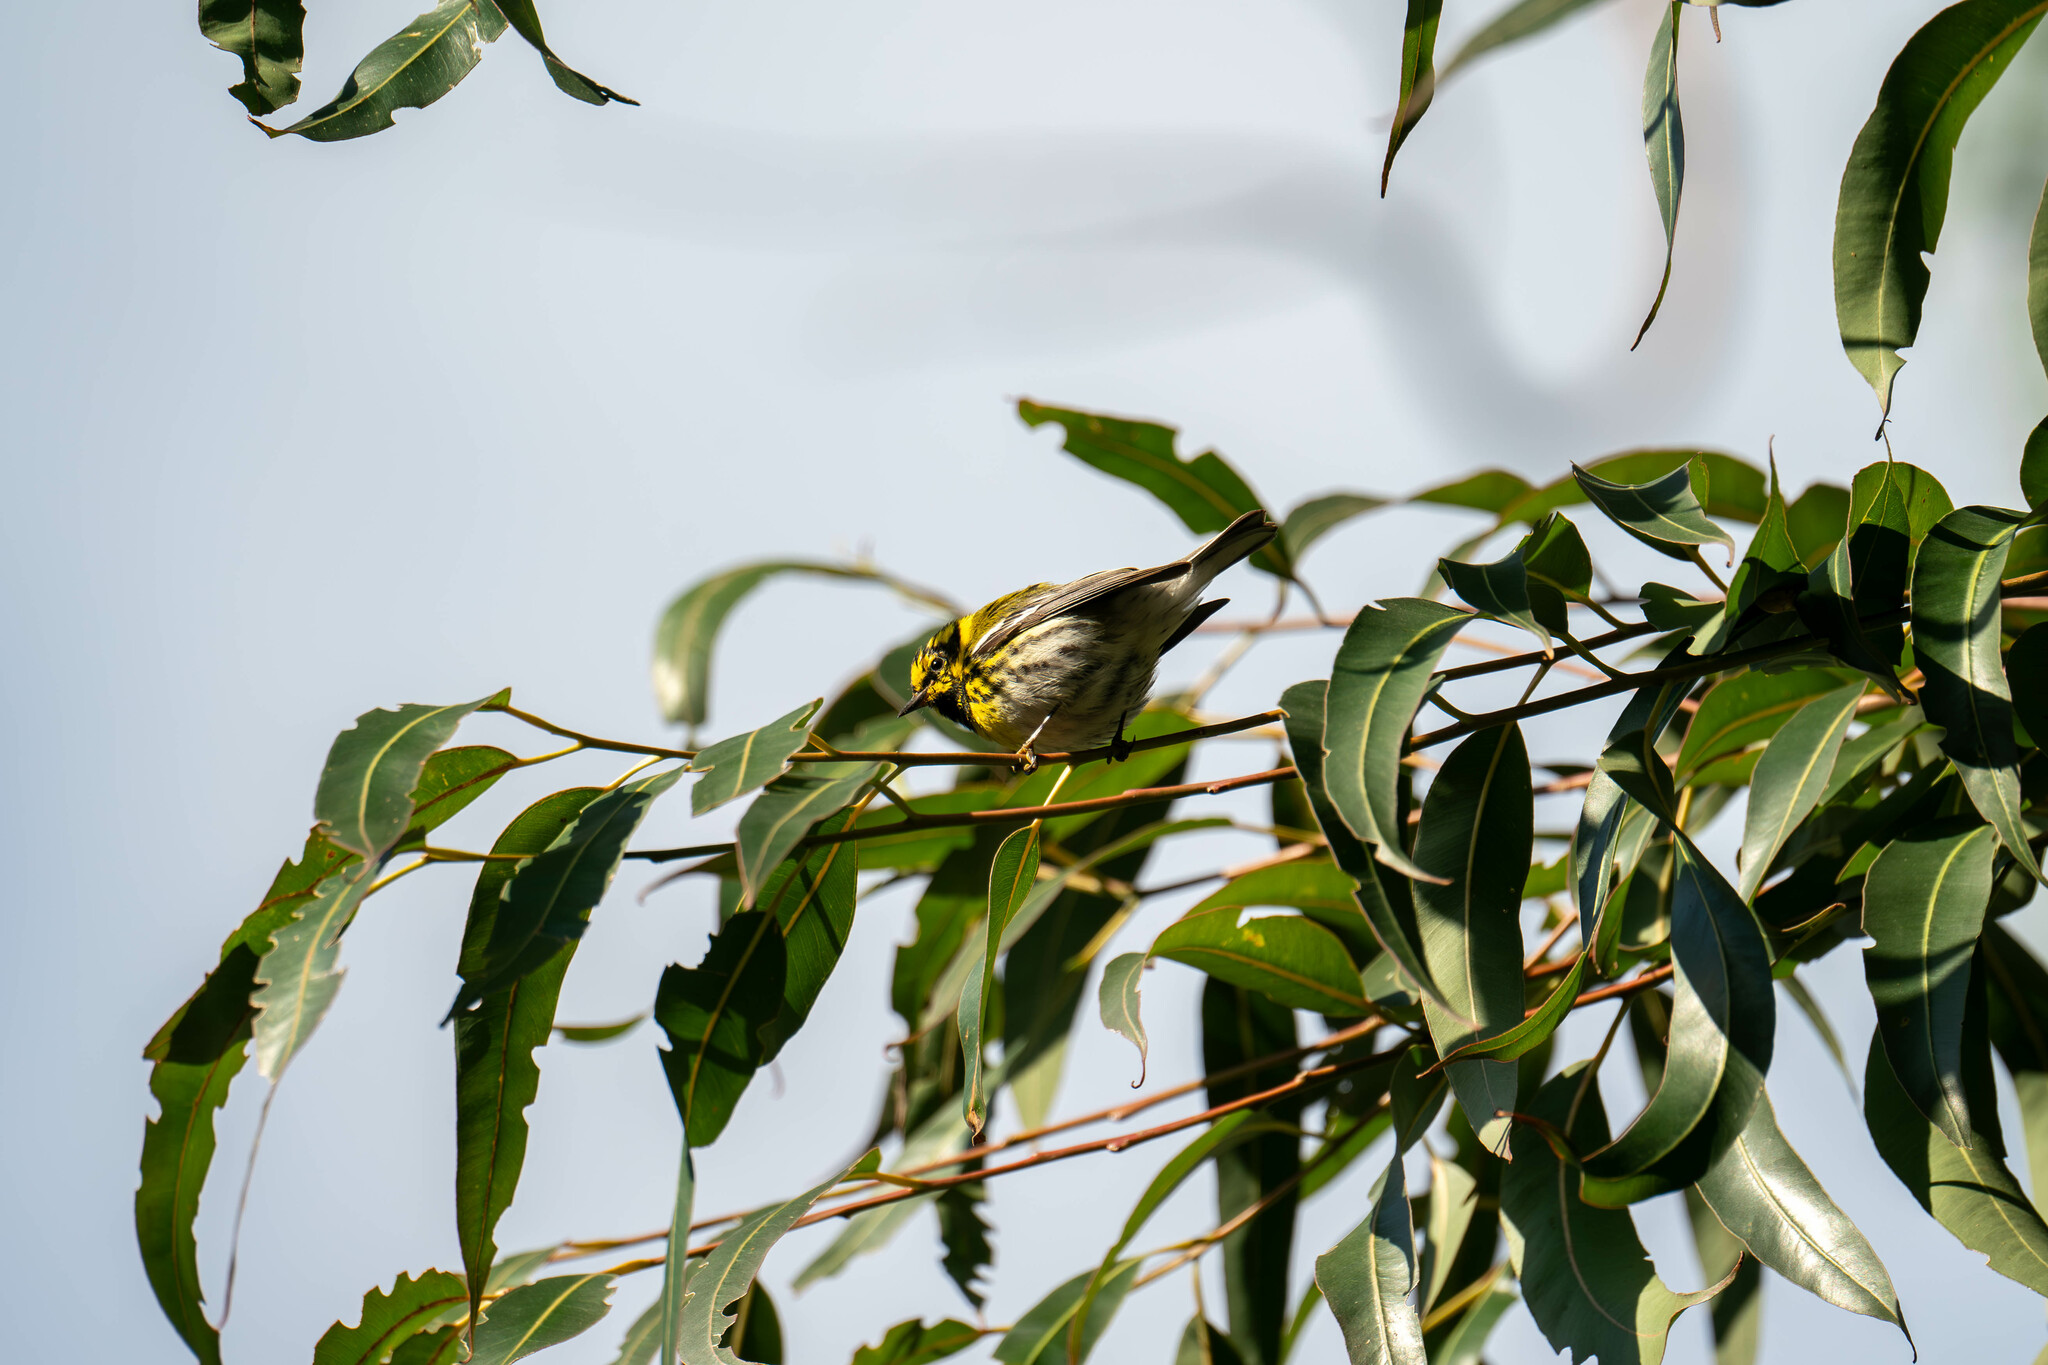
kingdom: Animalia
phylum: Chordata
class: Aves
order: Passeriformes
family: Parulidae
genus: Setophaga
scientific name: Setophaga townsendi
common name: Townsend's warbler
